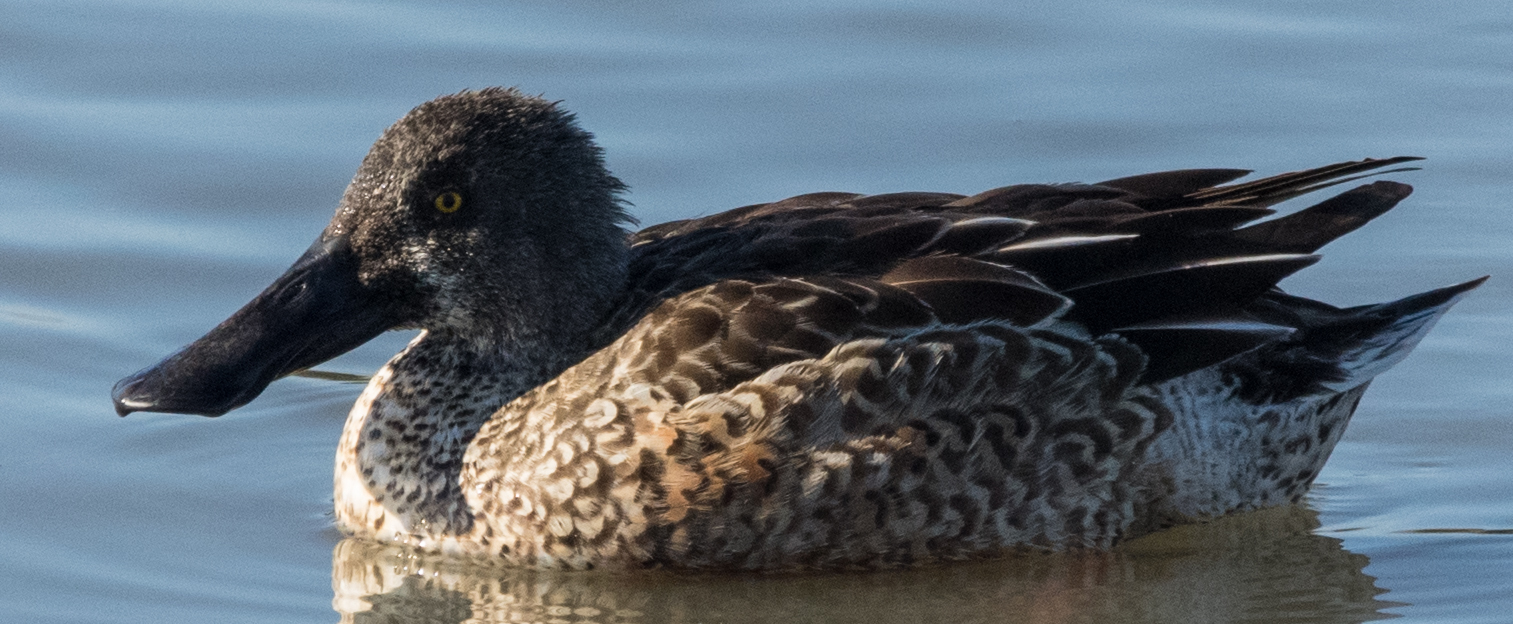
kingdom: Animalia
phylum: Chordata
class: Aves
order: Anseriformes
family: Anatidae
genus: Spatula
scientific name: Spatula clypeata
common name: Northern shoveler
